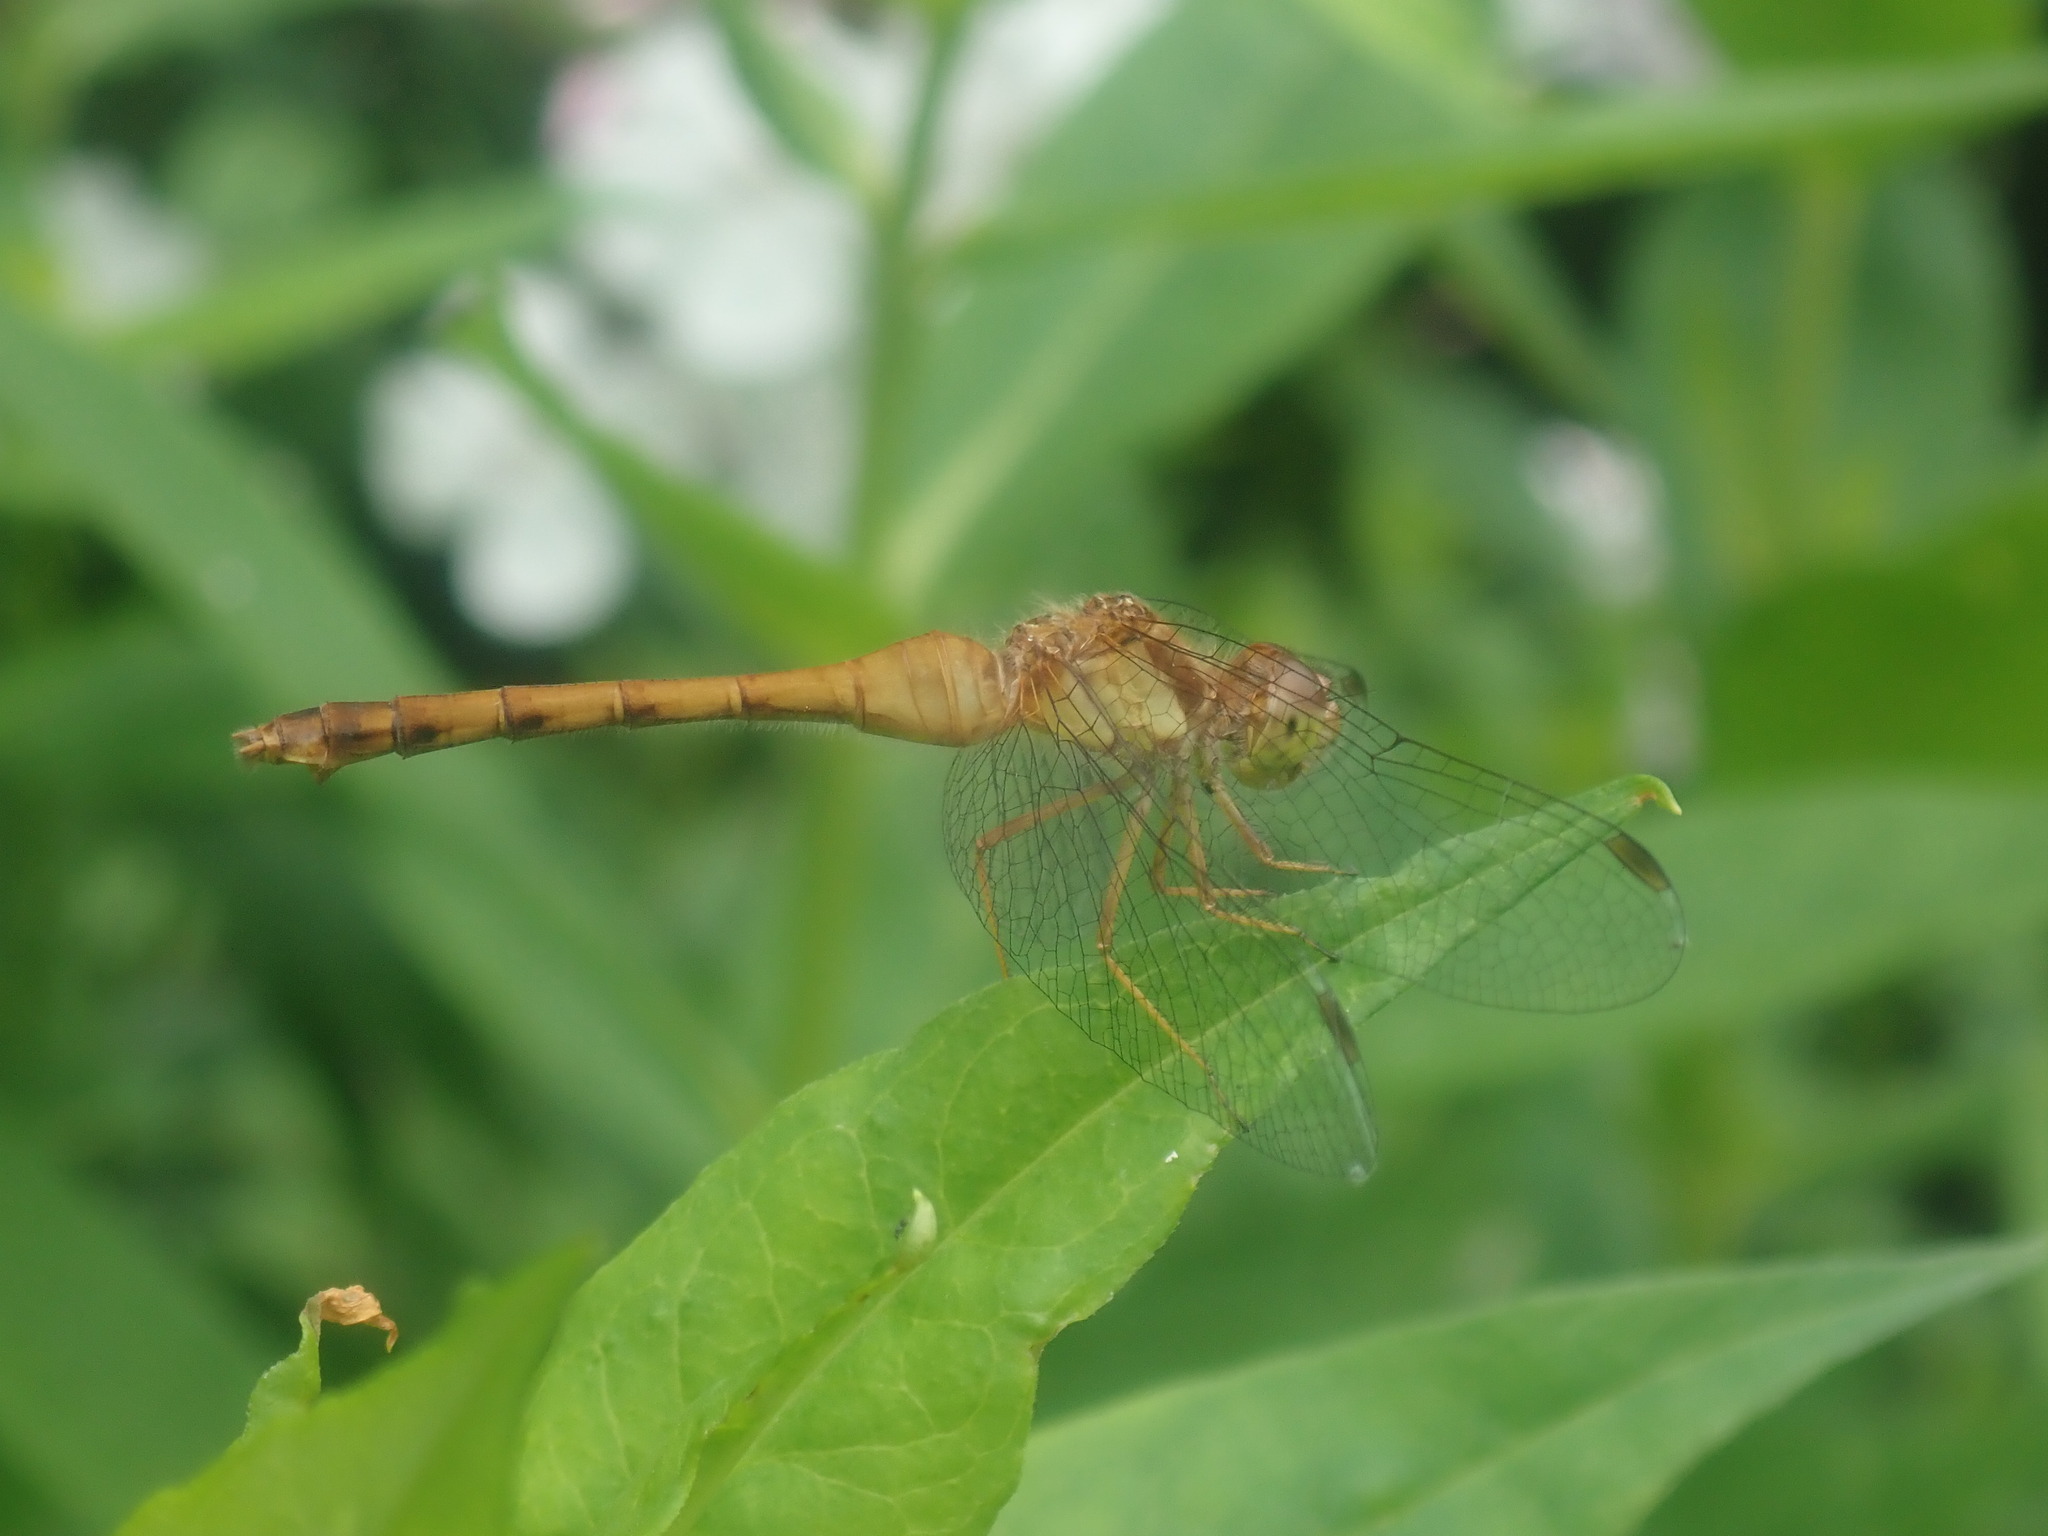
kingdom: Animalia
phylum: Arthropoda
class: Insecta
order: Odonata
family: Libellulidae
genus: Sympetrum
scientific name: Sympetrum vicinum
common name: Autumn meadowhawk
